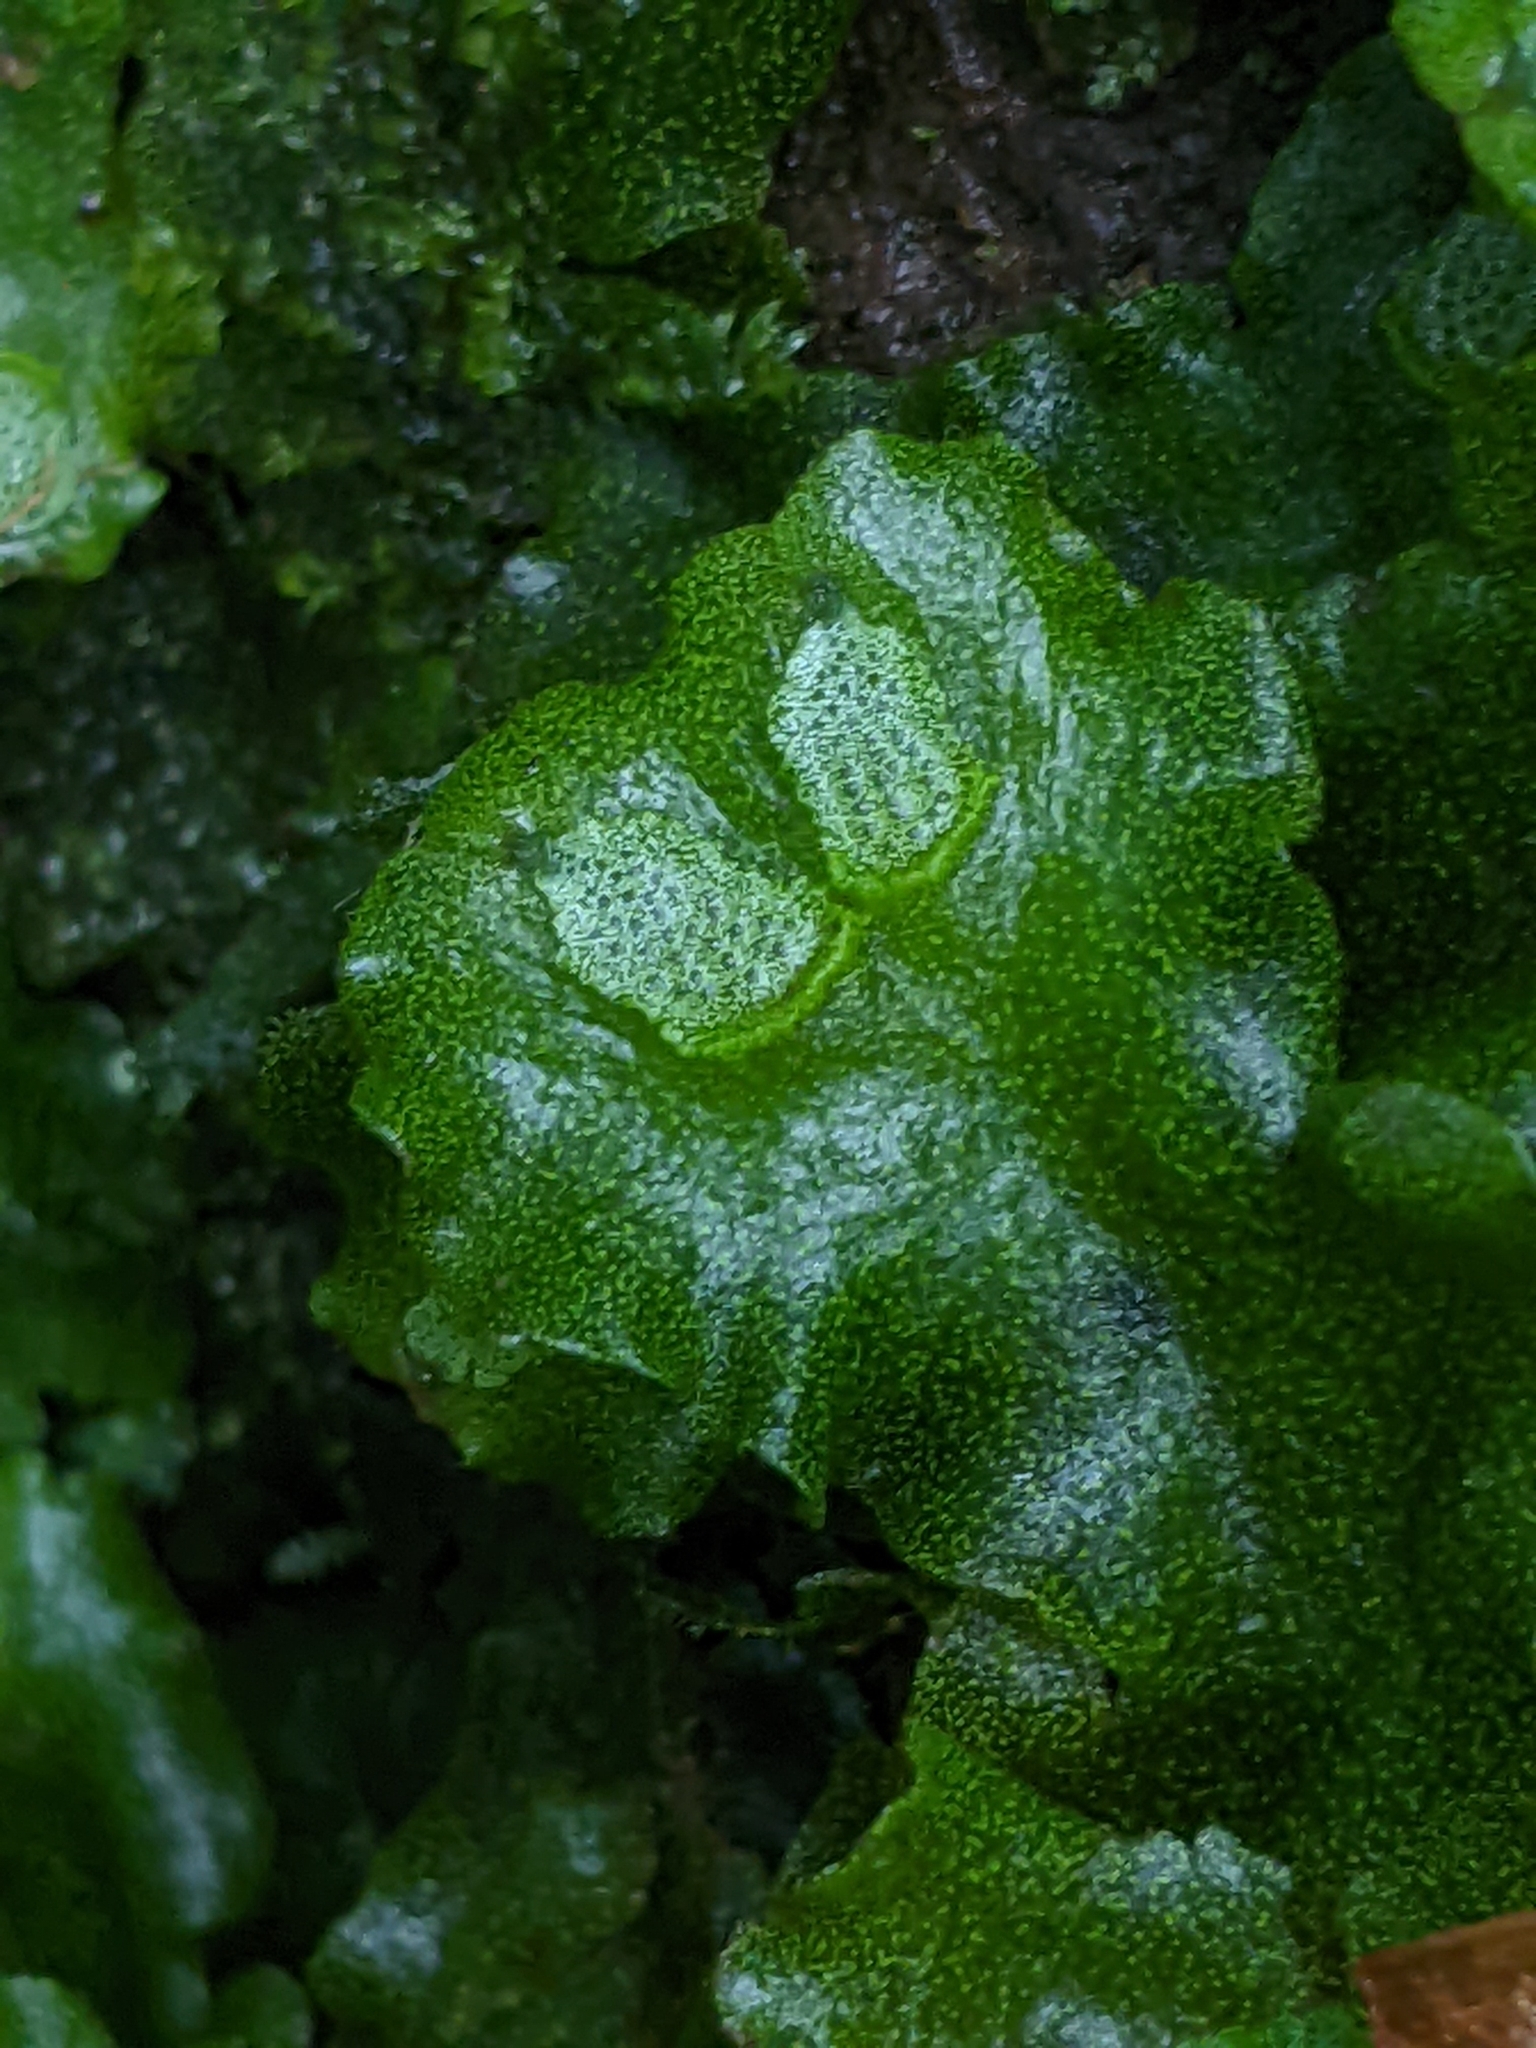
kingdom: Plantae
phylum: Marchantiophyta
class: Marchantiopsida
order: Marchantiales
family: Monocleaceae
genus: Monoclea
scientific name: Monoclea gottschei
